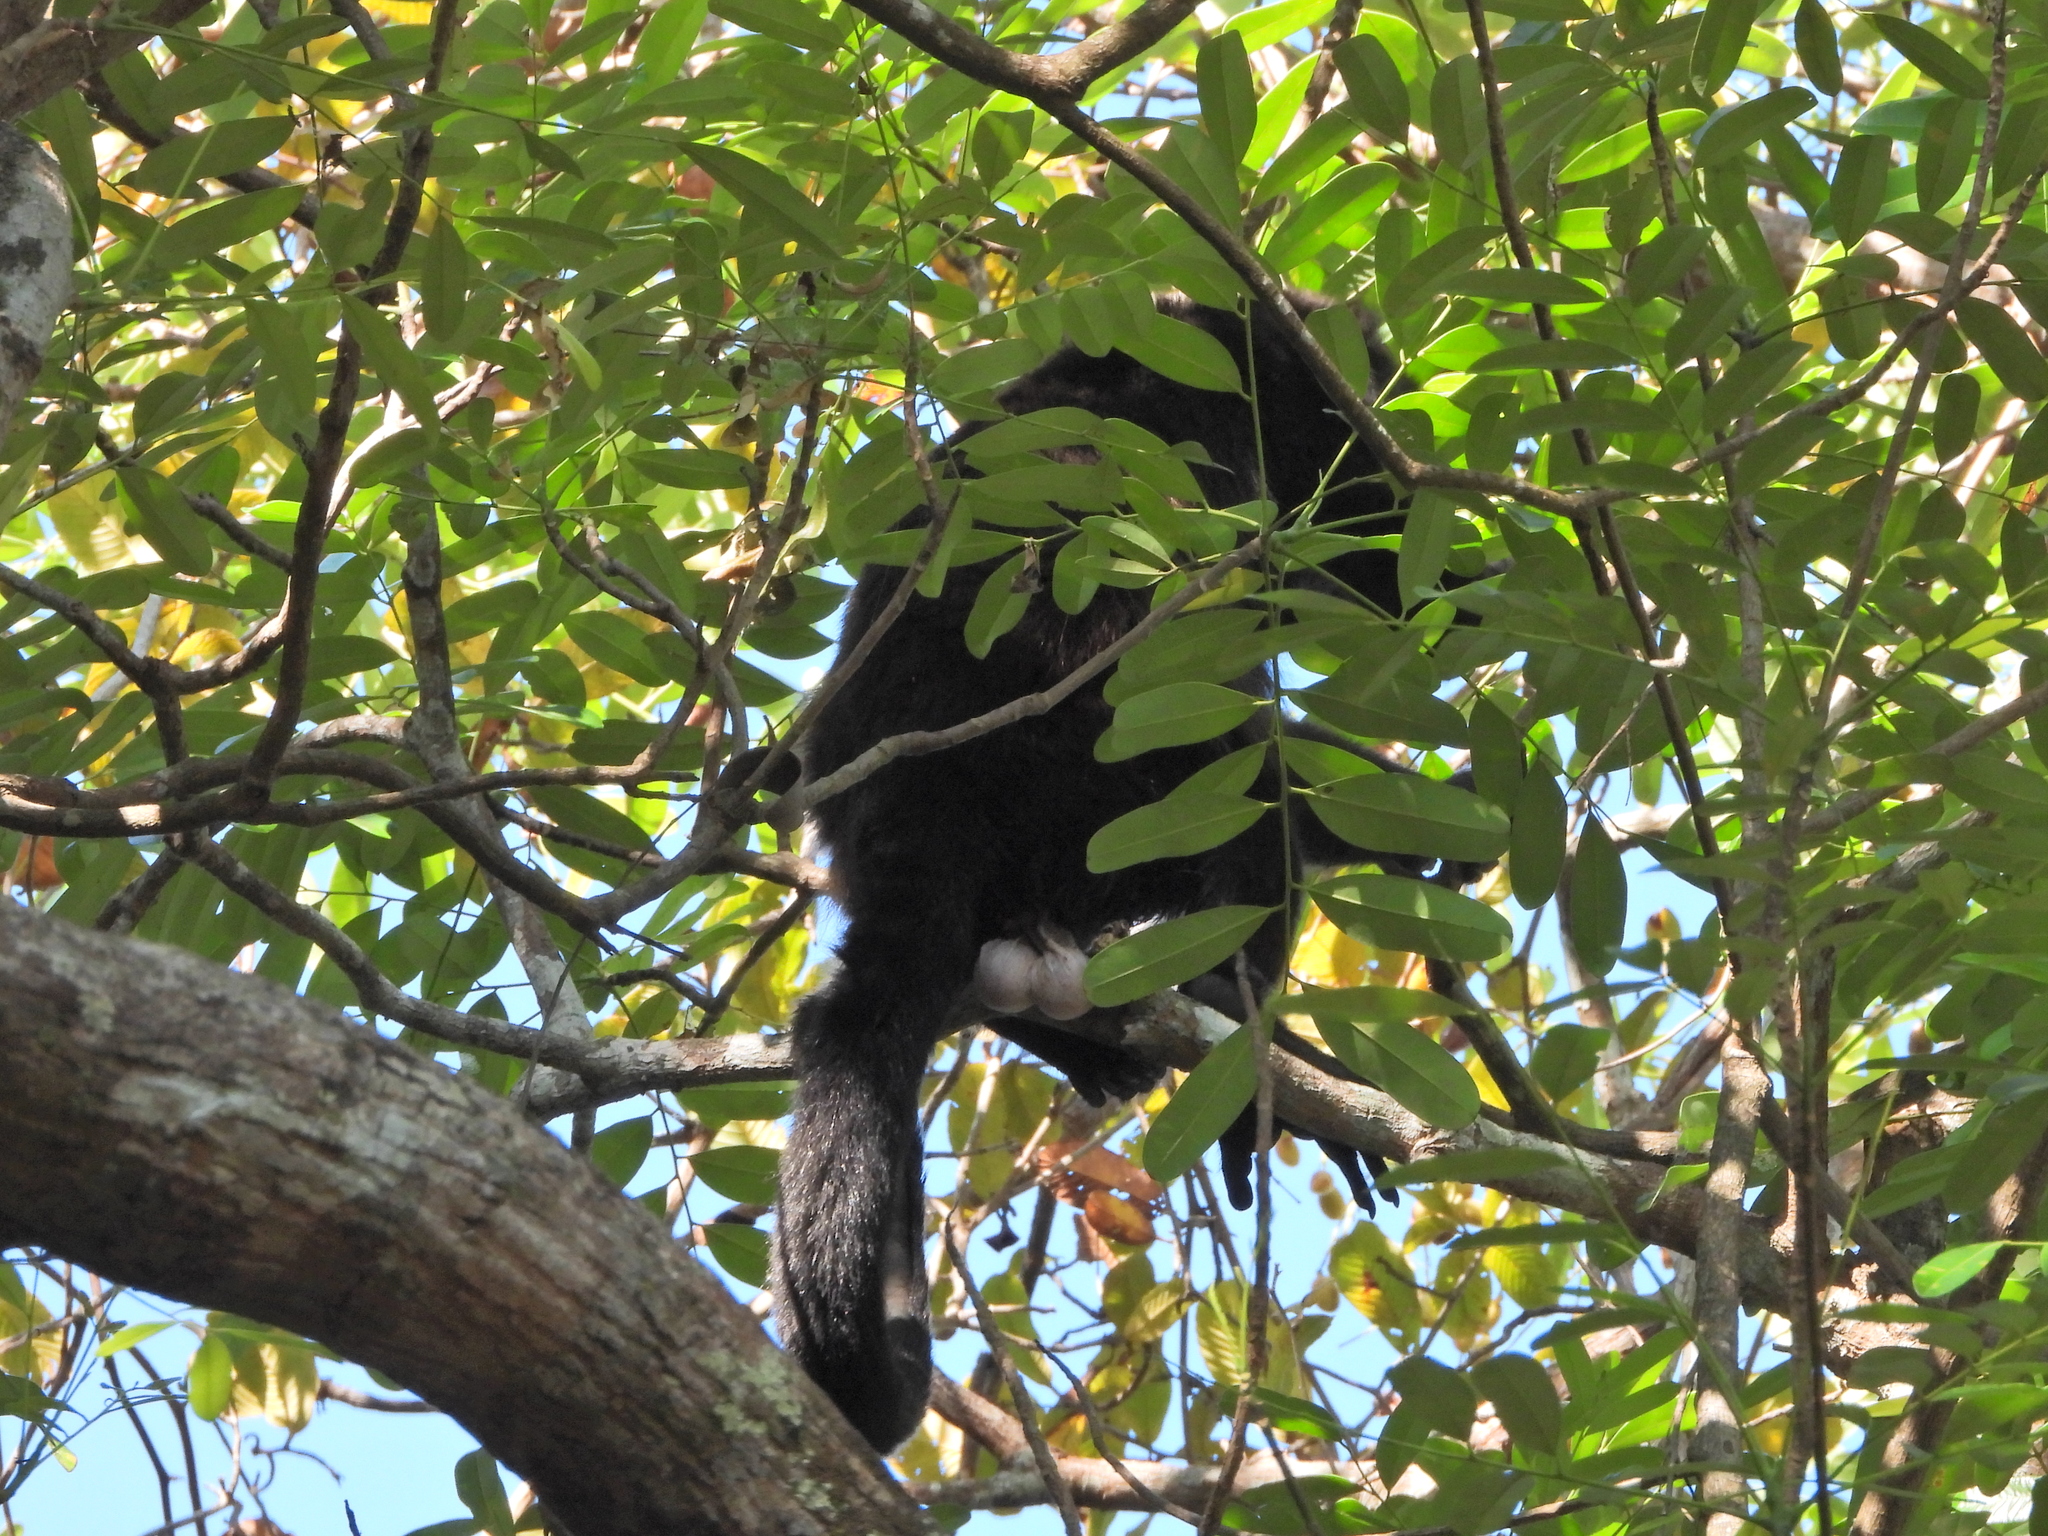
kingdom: Animalia
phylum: Chordata
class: Mammalia
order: Primates
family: Atelidae
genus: Alouatta
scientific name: Alouatta palliata
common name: Mantled howler
